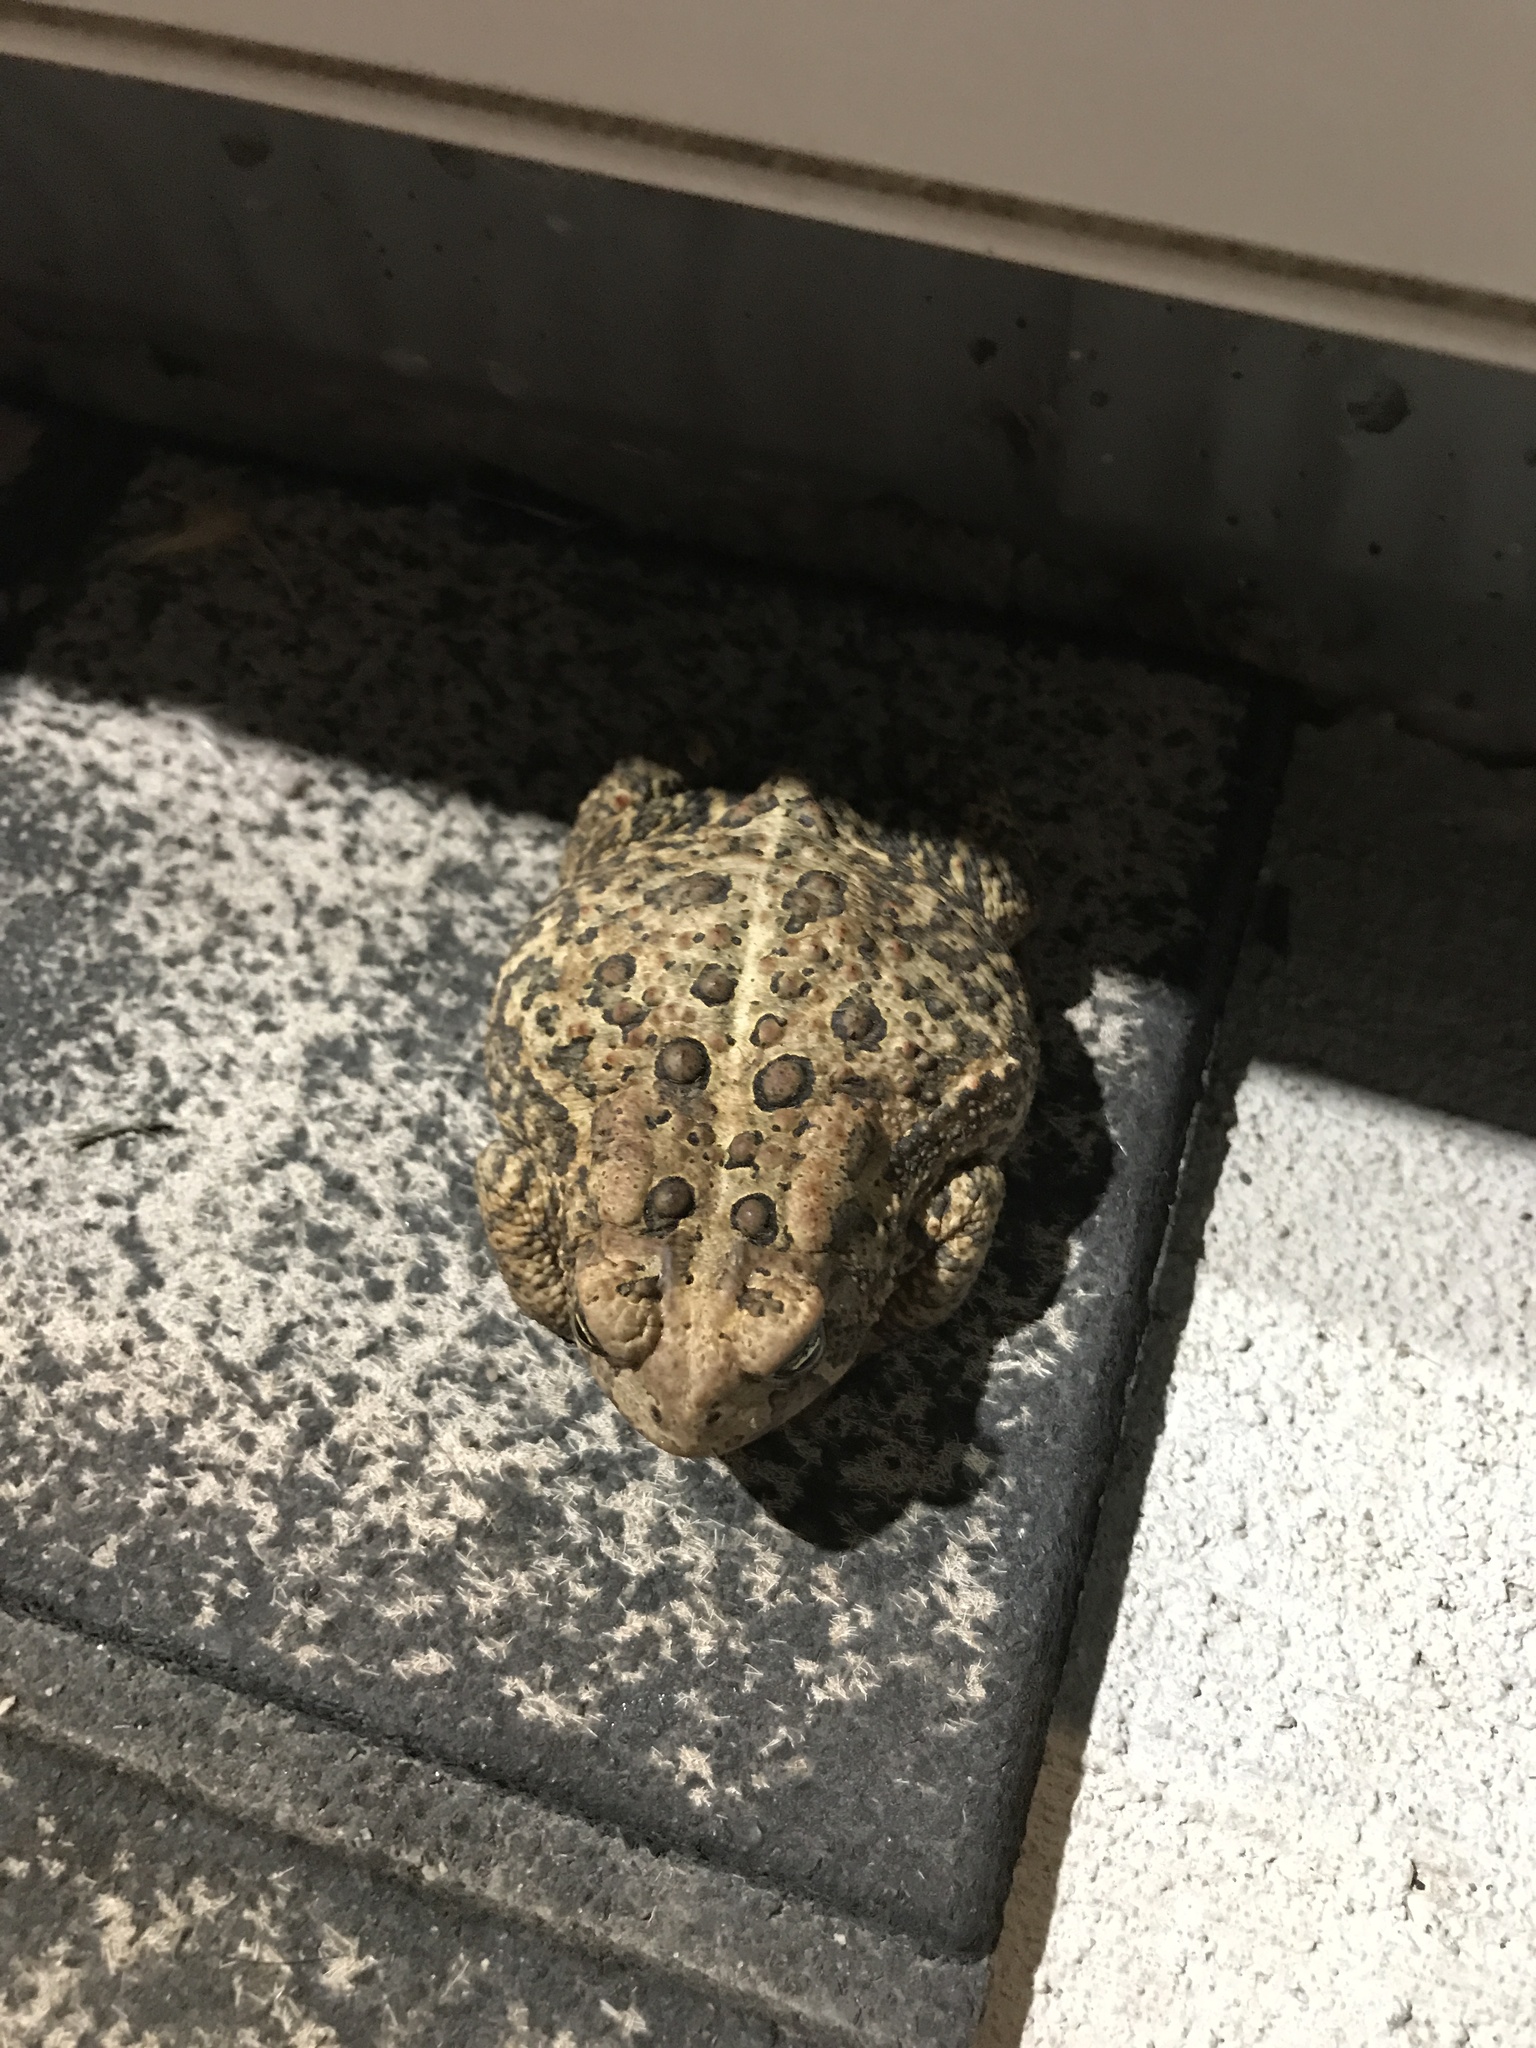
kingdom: Animalia
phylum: Chordata
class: Amphibia
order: Anura
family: Bufonidae
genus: Anaxyrus
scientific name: Anaxyrus americanus
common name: American toad
